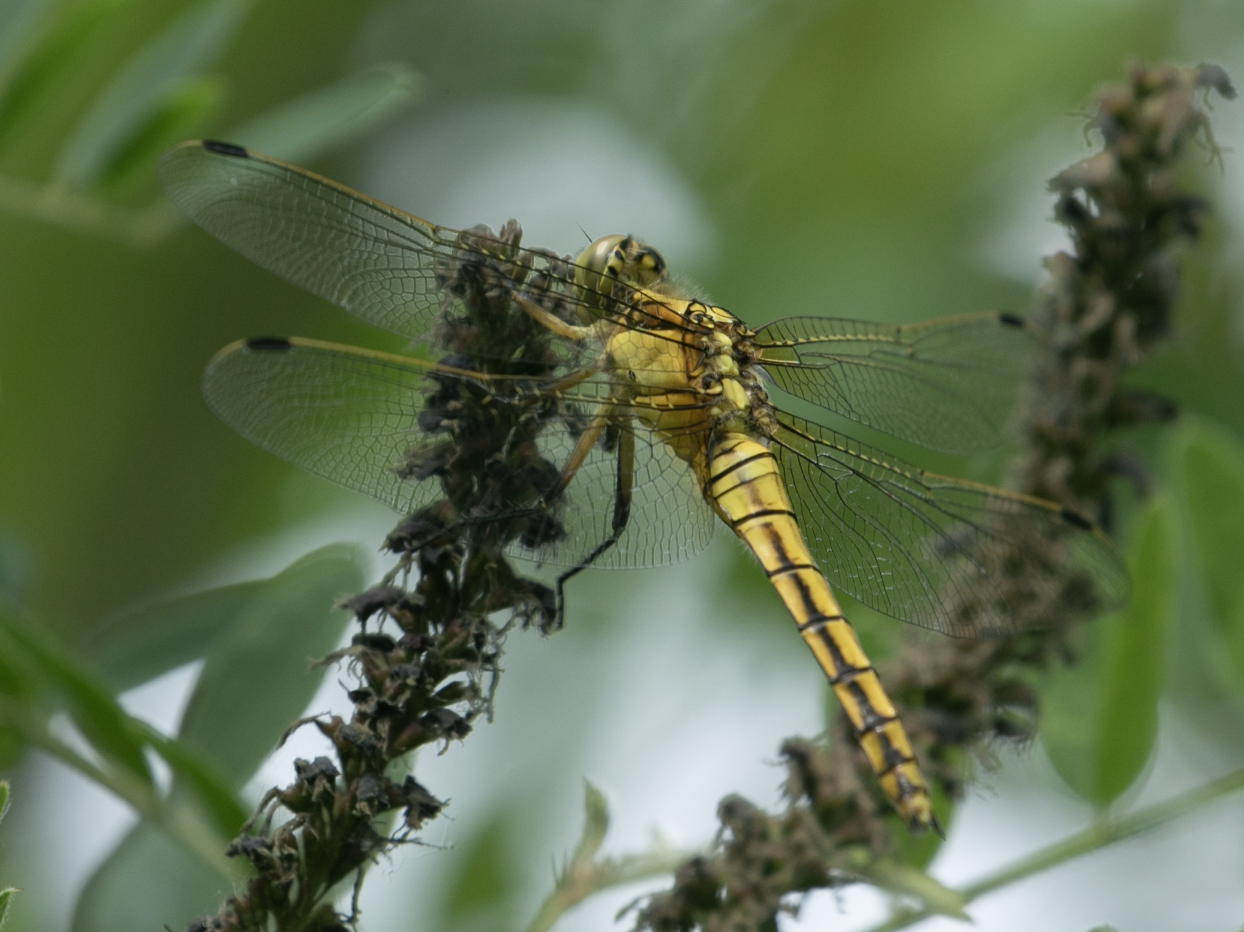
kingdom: Animalia
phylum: Arthropoda
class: Insecta
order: Odonata
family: Libellulidae
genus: Orthetrum
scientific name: Orthetrum cancellatum
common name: Black-tailed skimmer
